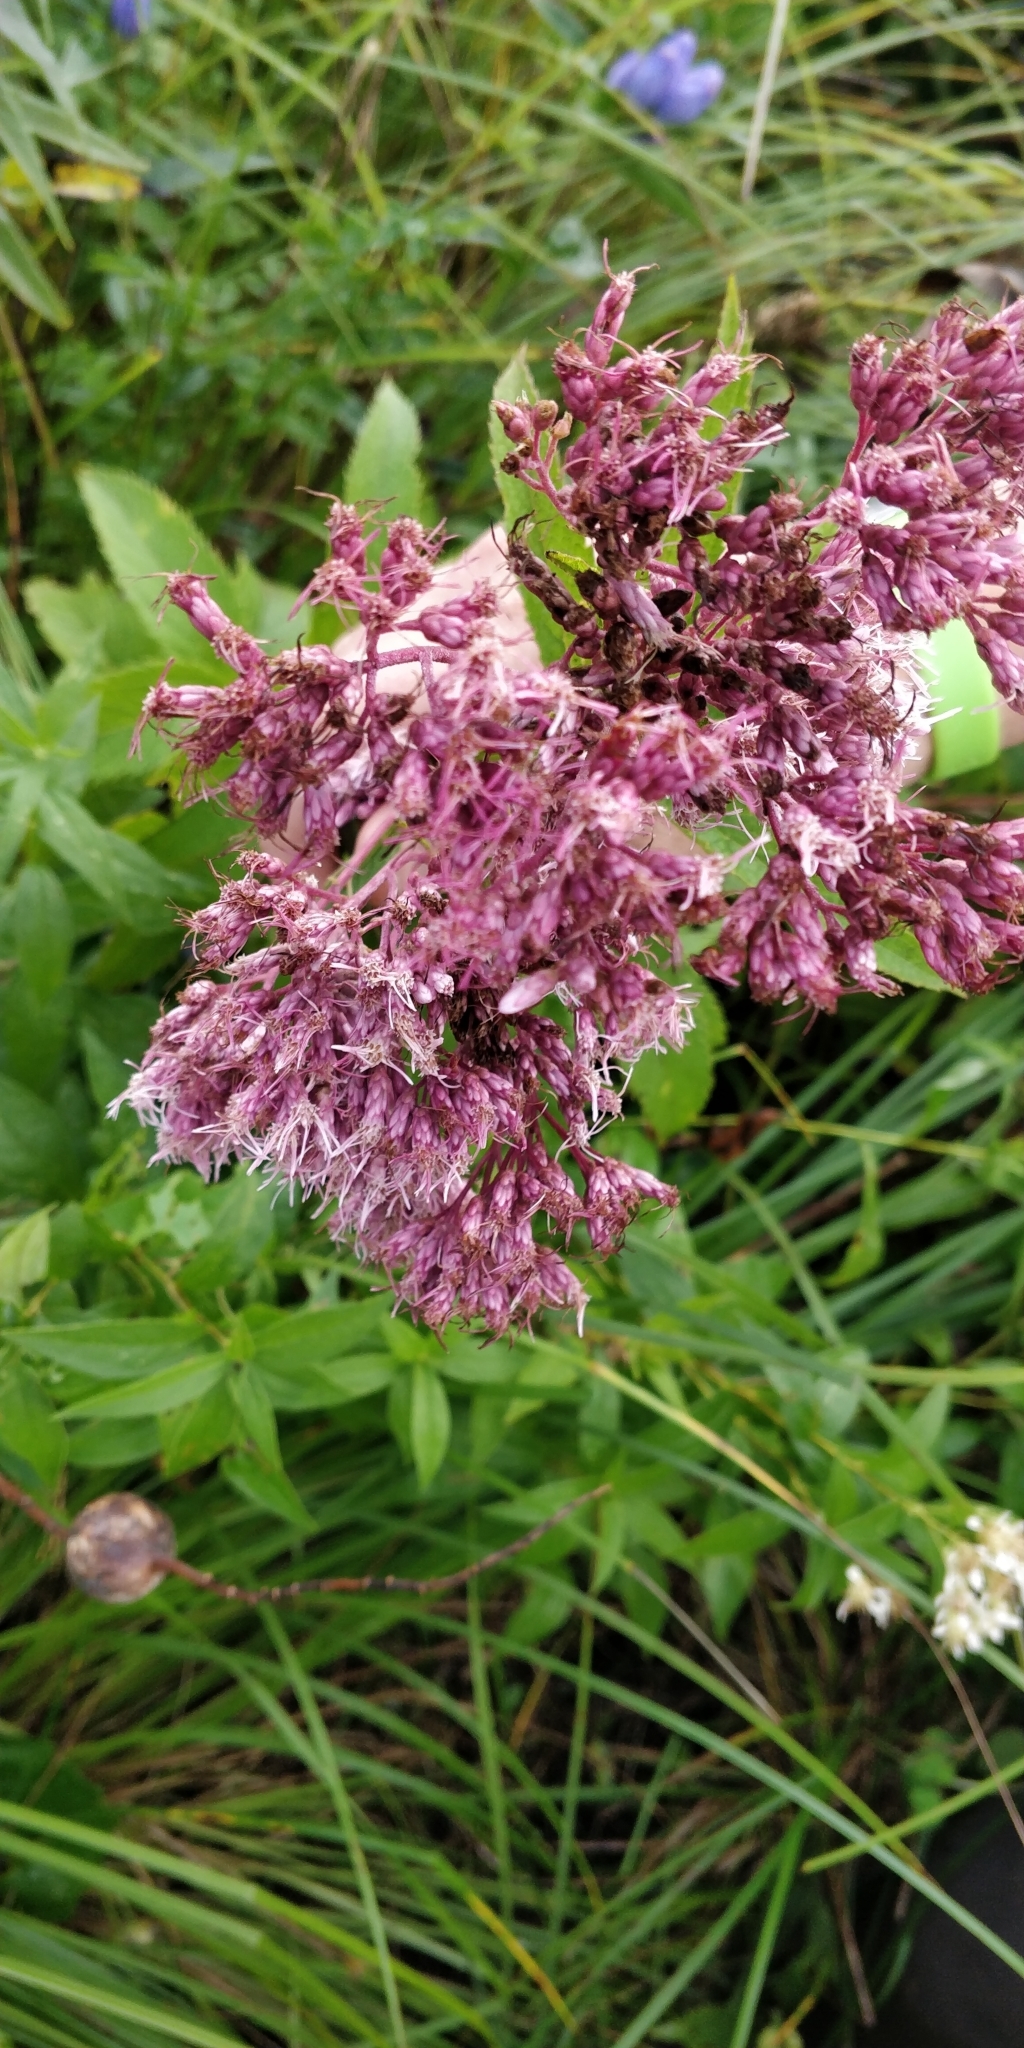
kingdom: Plantae
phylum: Tracheophyta
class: Magnoliopsida
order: Asterales
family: Asteraceae
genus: Eutrochium
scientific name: Eutrochium maculatum
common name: Spotted joe pye weed
